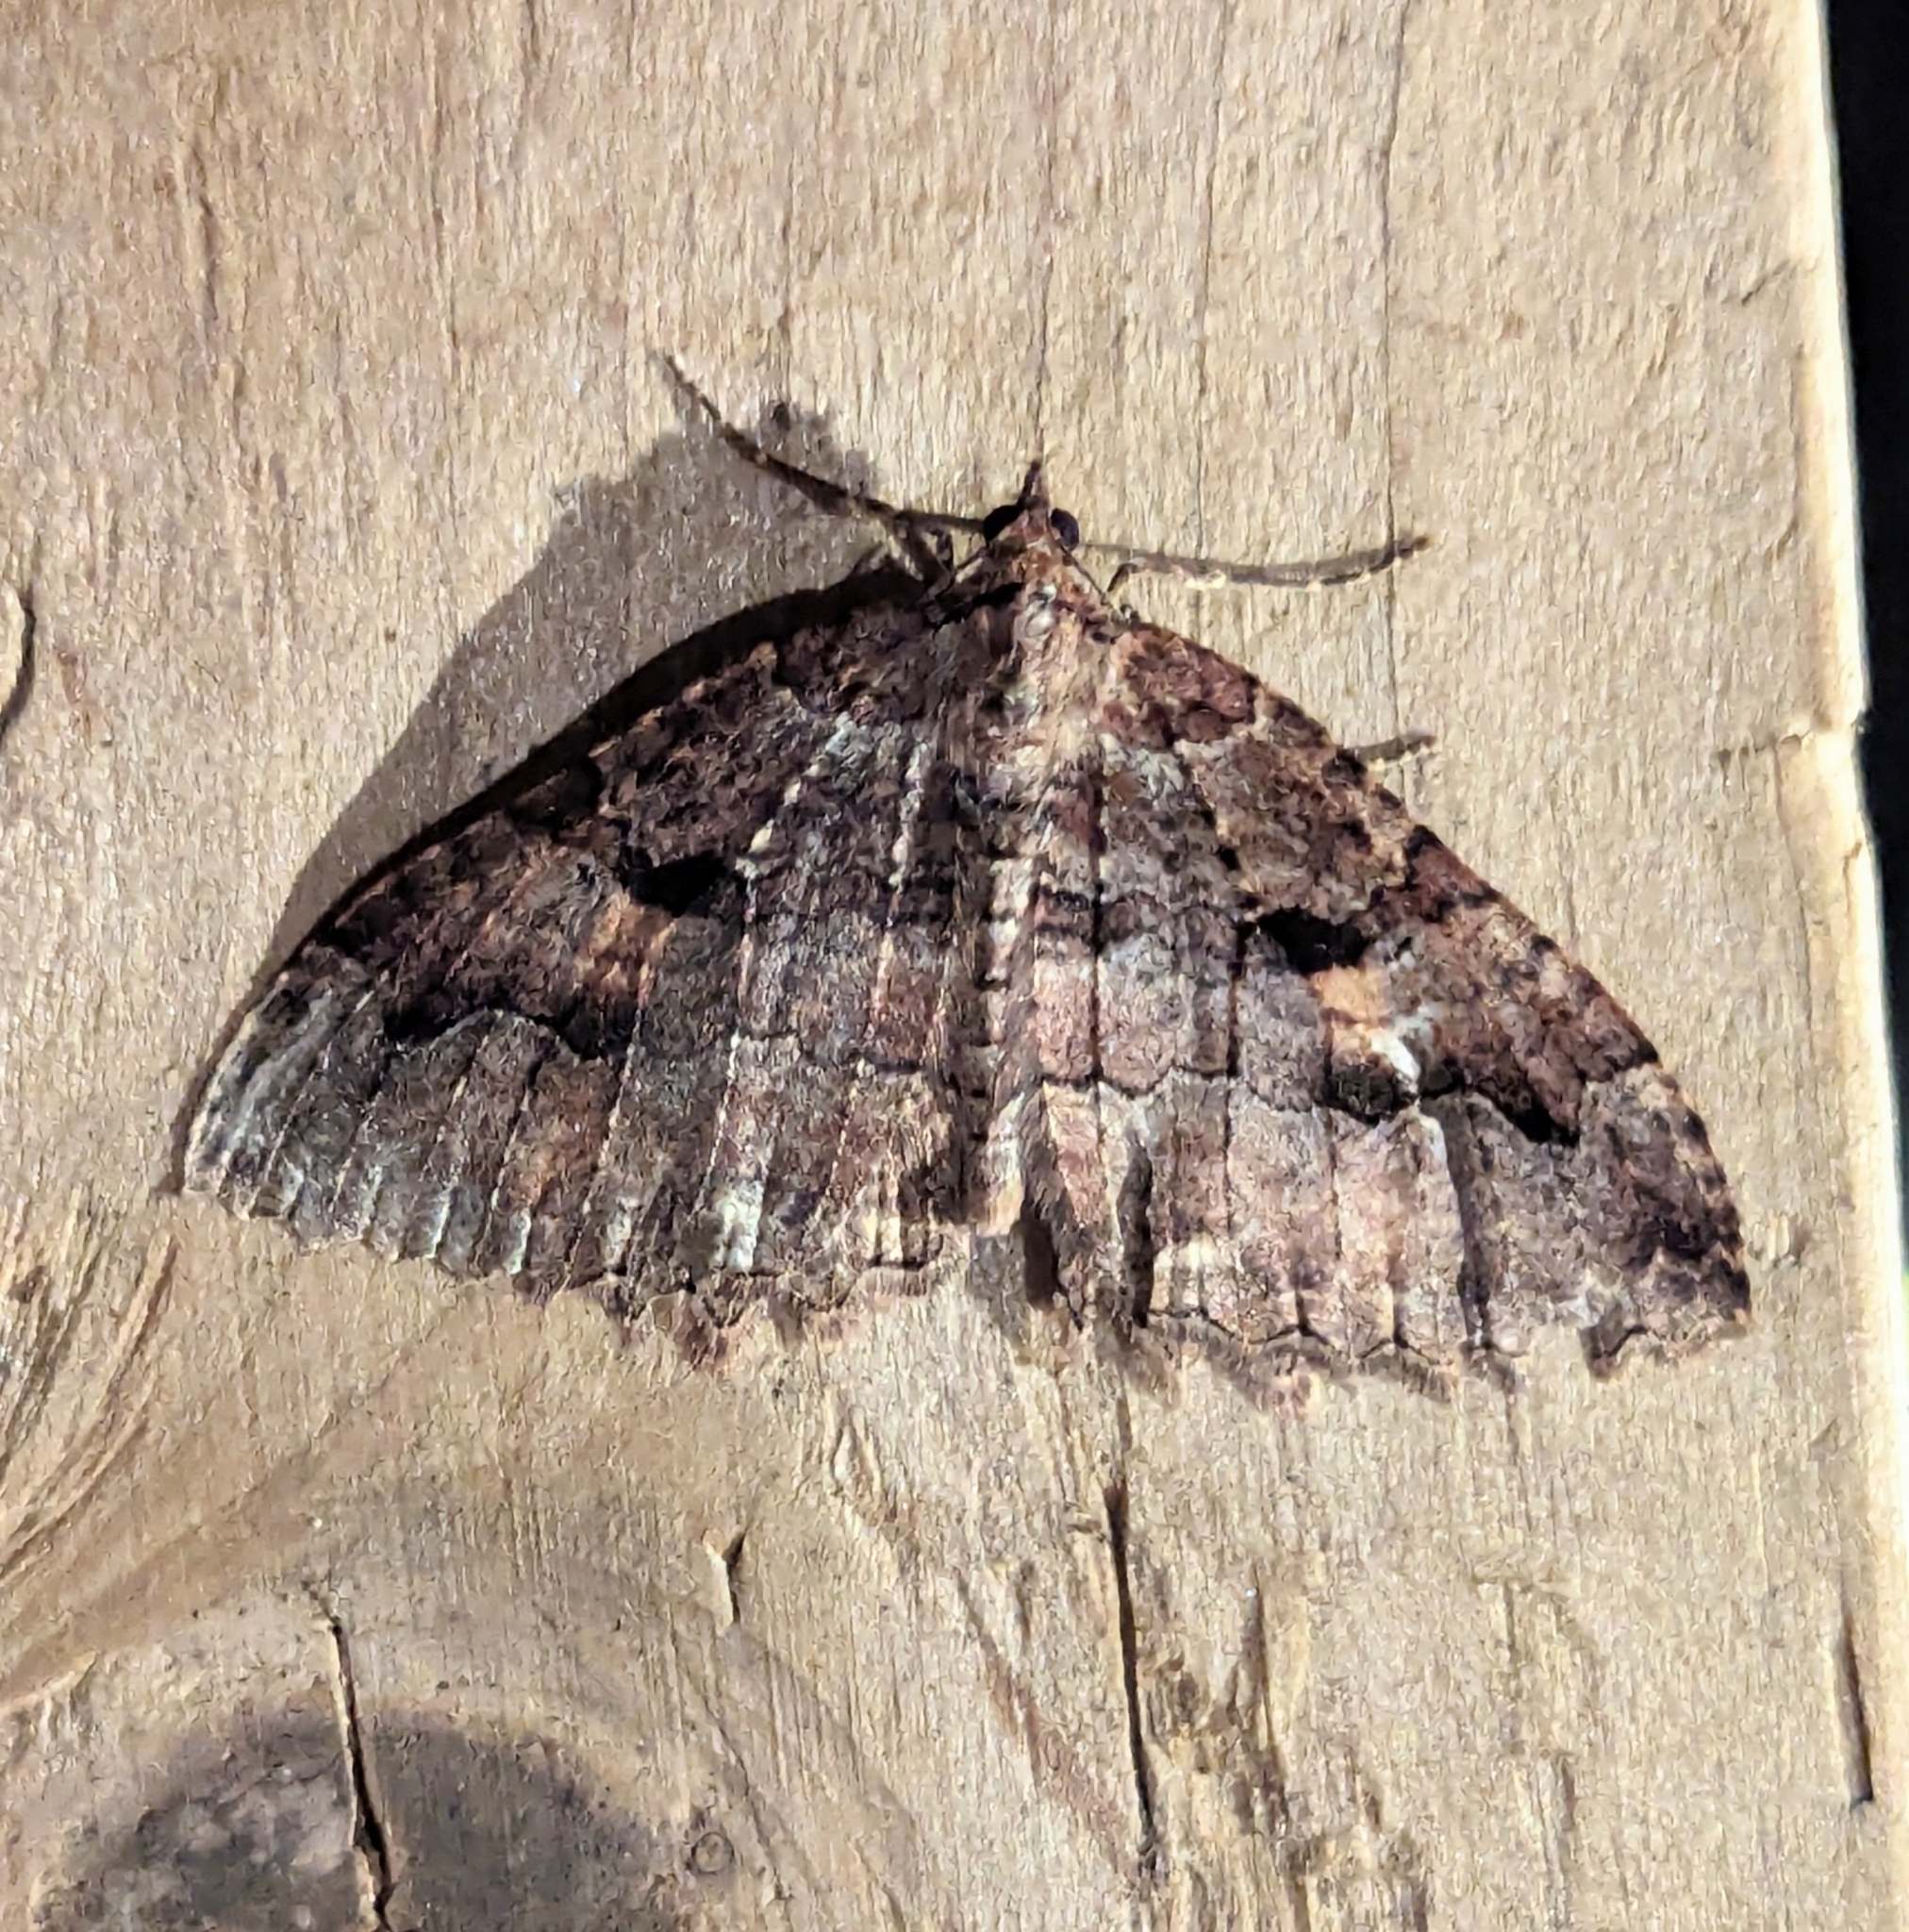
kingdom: Animalia
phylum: Arthropoda
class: Insecta
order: Lepidoptera
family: Geometridae
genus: Triphosa
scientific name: Triphosa haesitata
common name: Tissue moth
